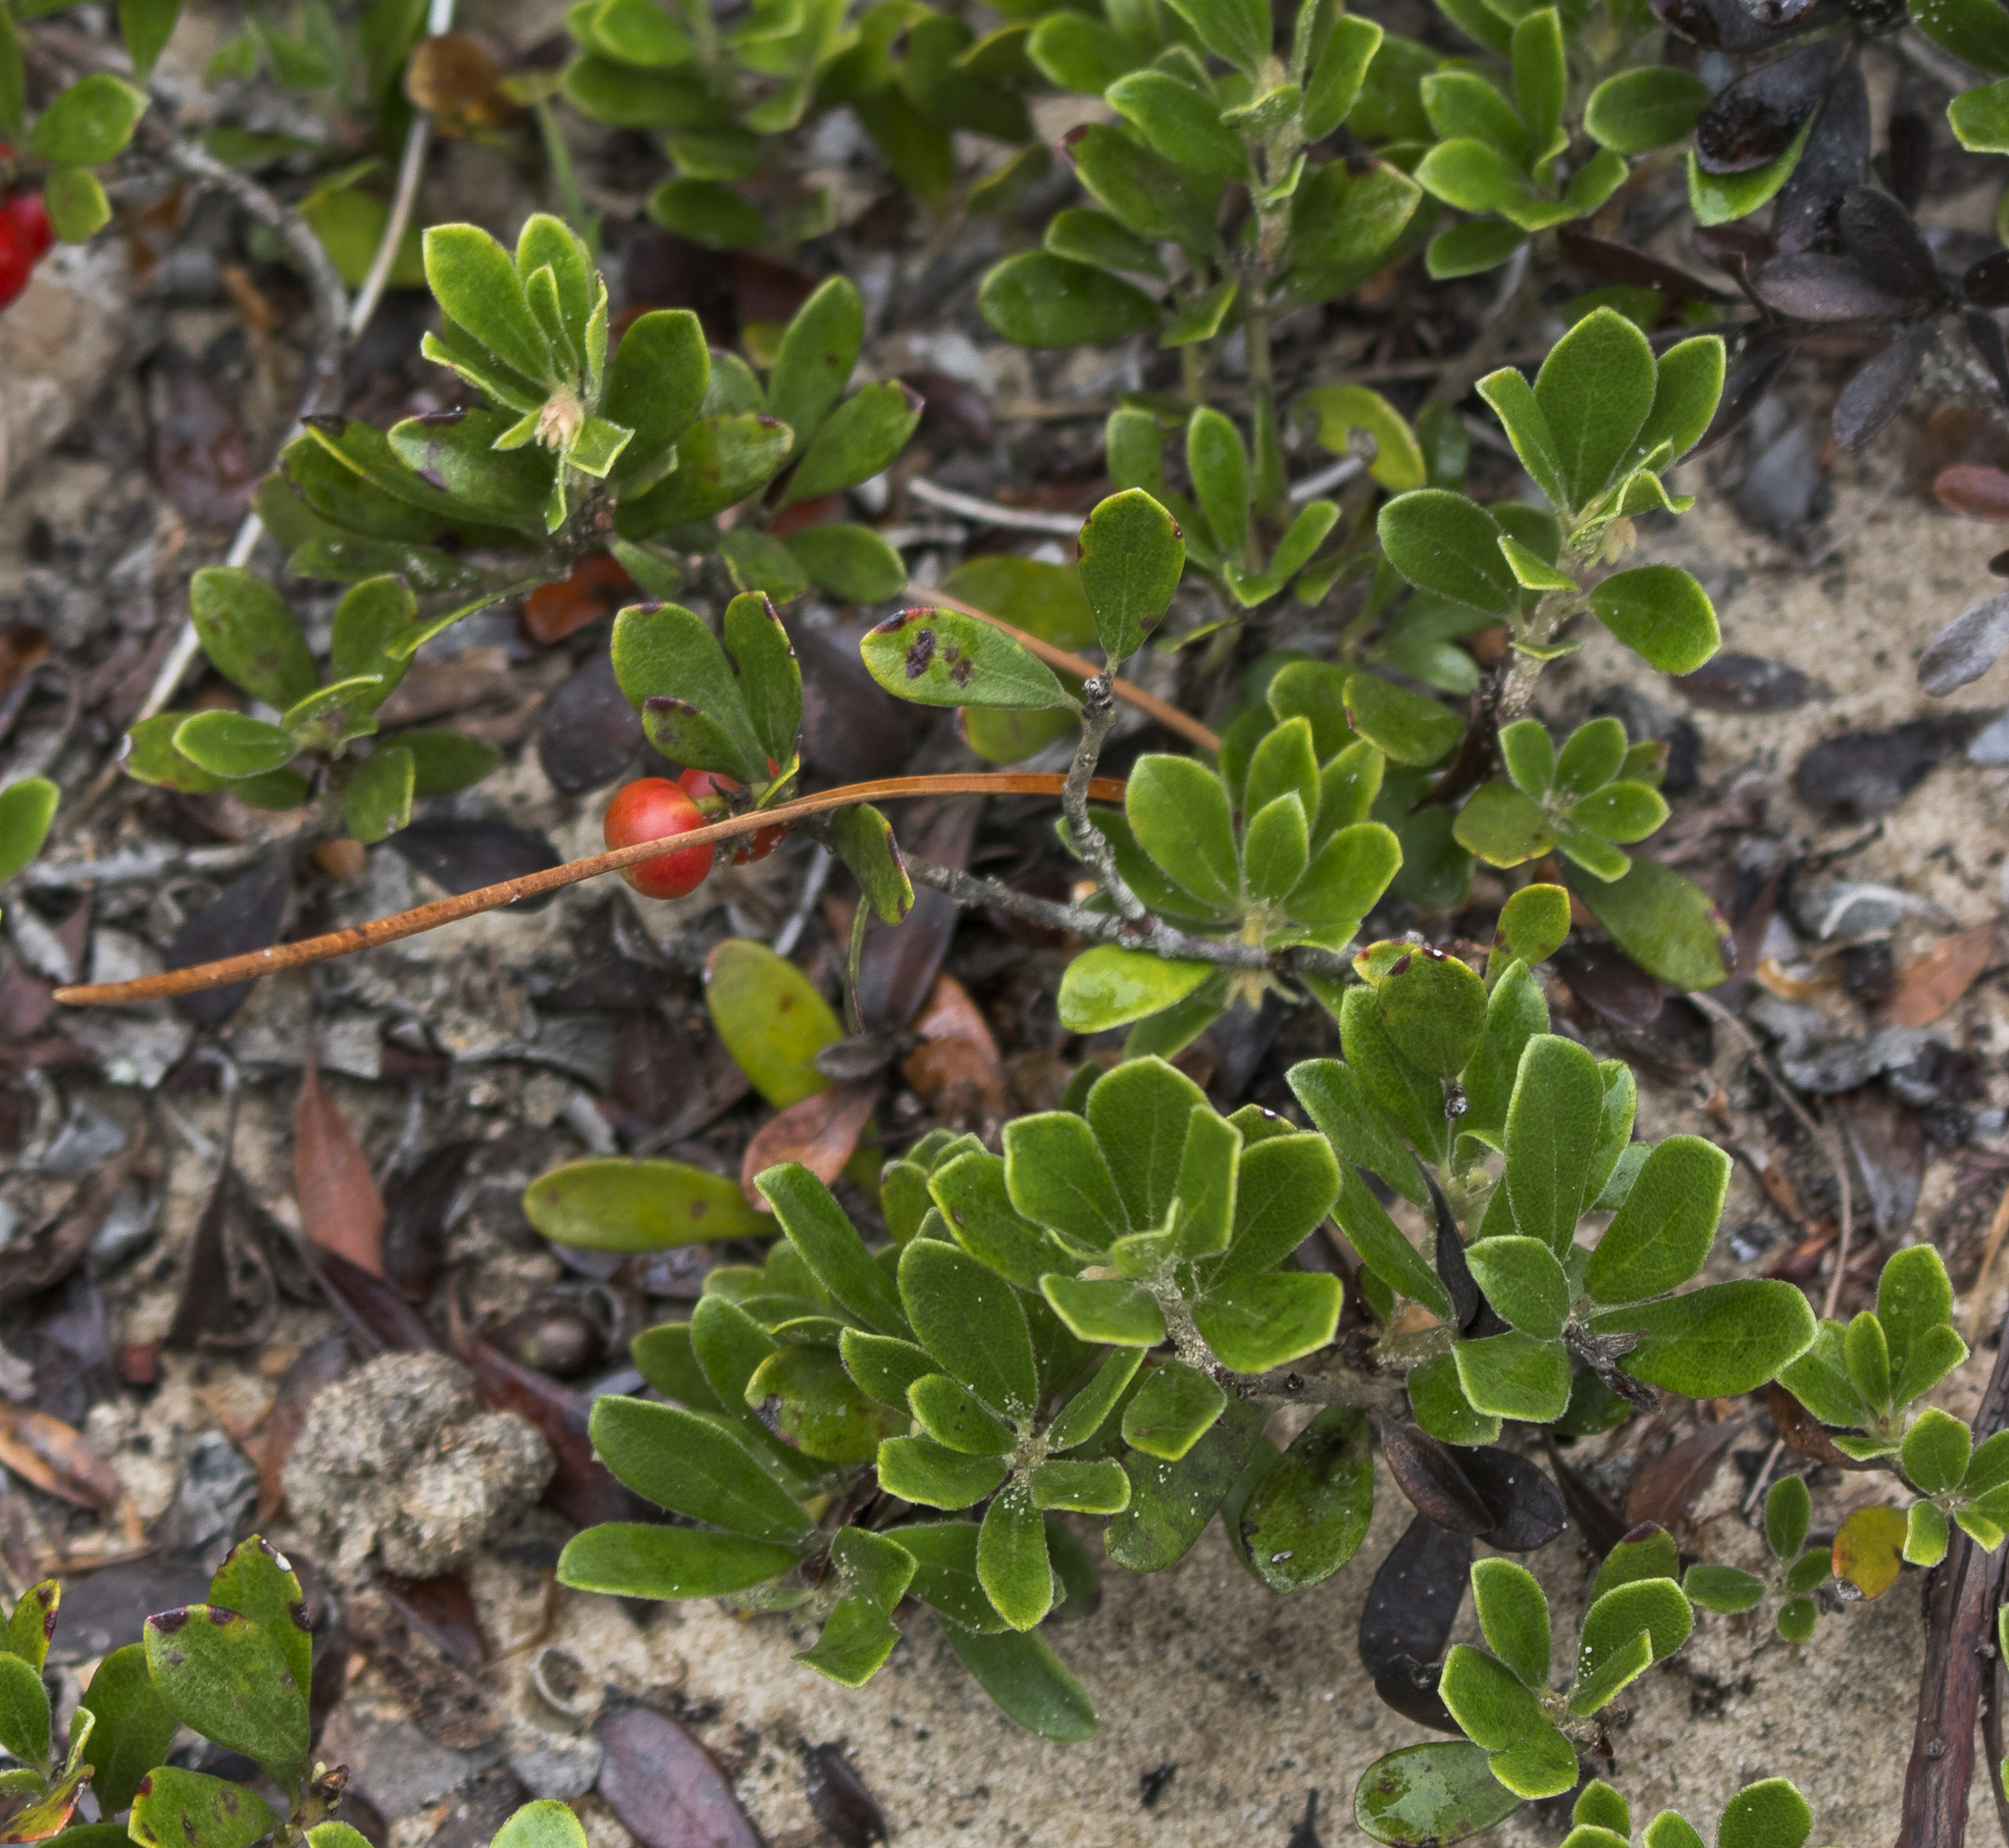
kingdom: Plantae
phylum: Tracheophyta
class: Magnoliopsida
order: Ericales
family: Ericaceae
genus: Arctostaphylos
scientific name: Arctostaphylos uva-ursi
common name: Bearberry
